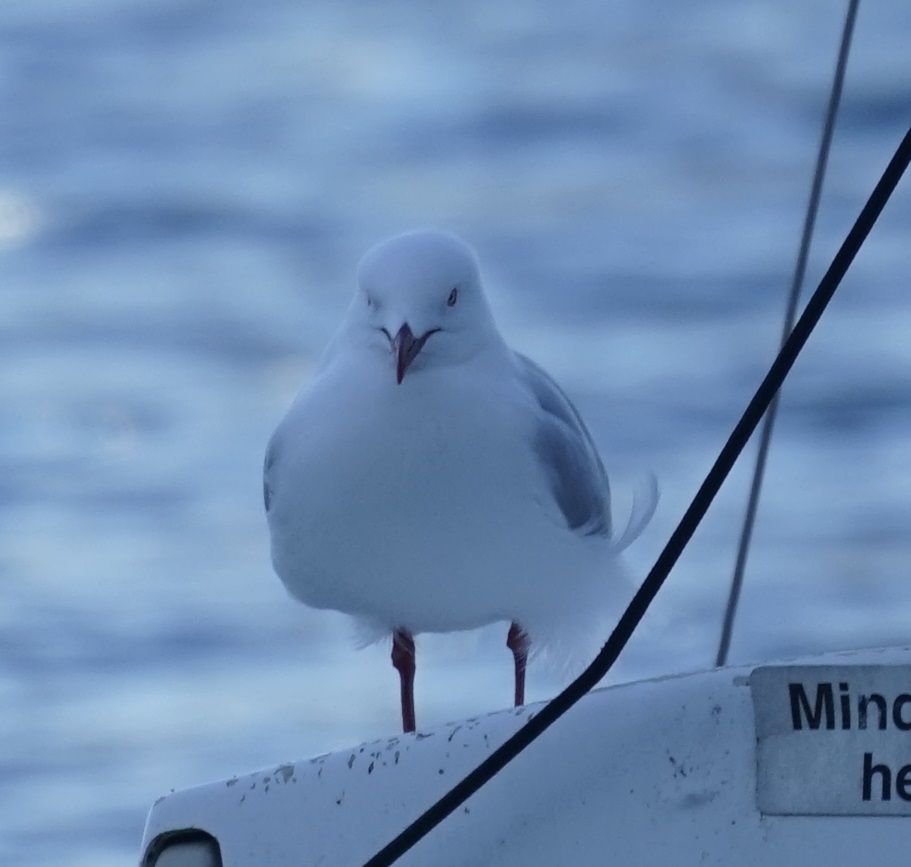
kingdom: Animalia
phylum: Chordata
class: Aves
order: Charadriiformes
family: Laridae
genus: Chroicocephalus
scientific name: Chroicocephalus novaehollandiae
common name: Silver gull
